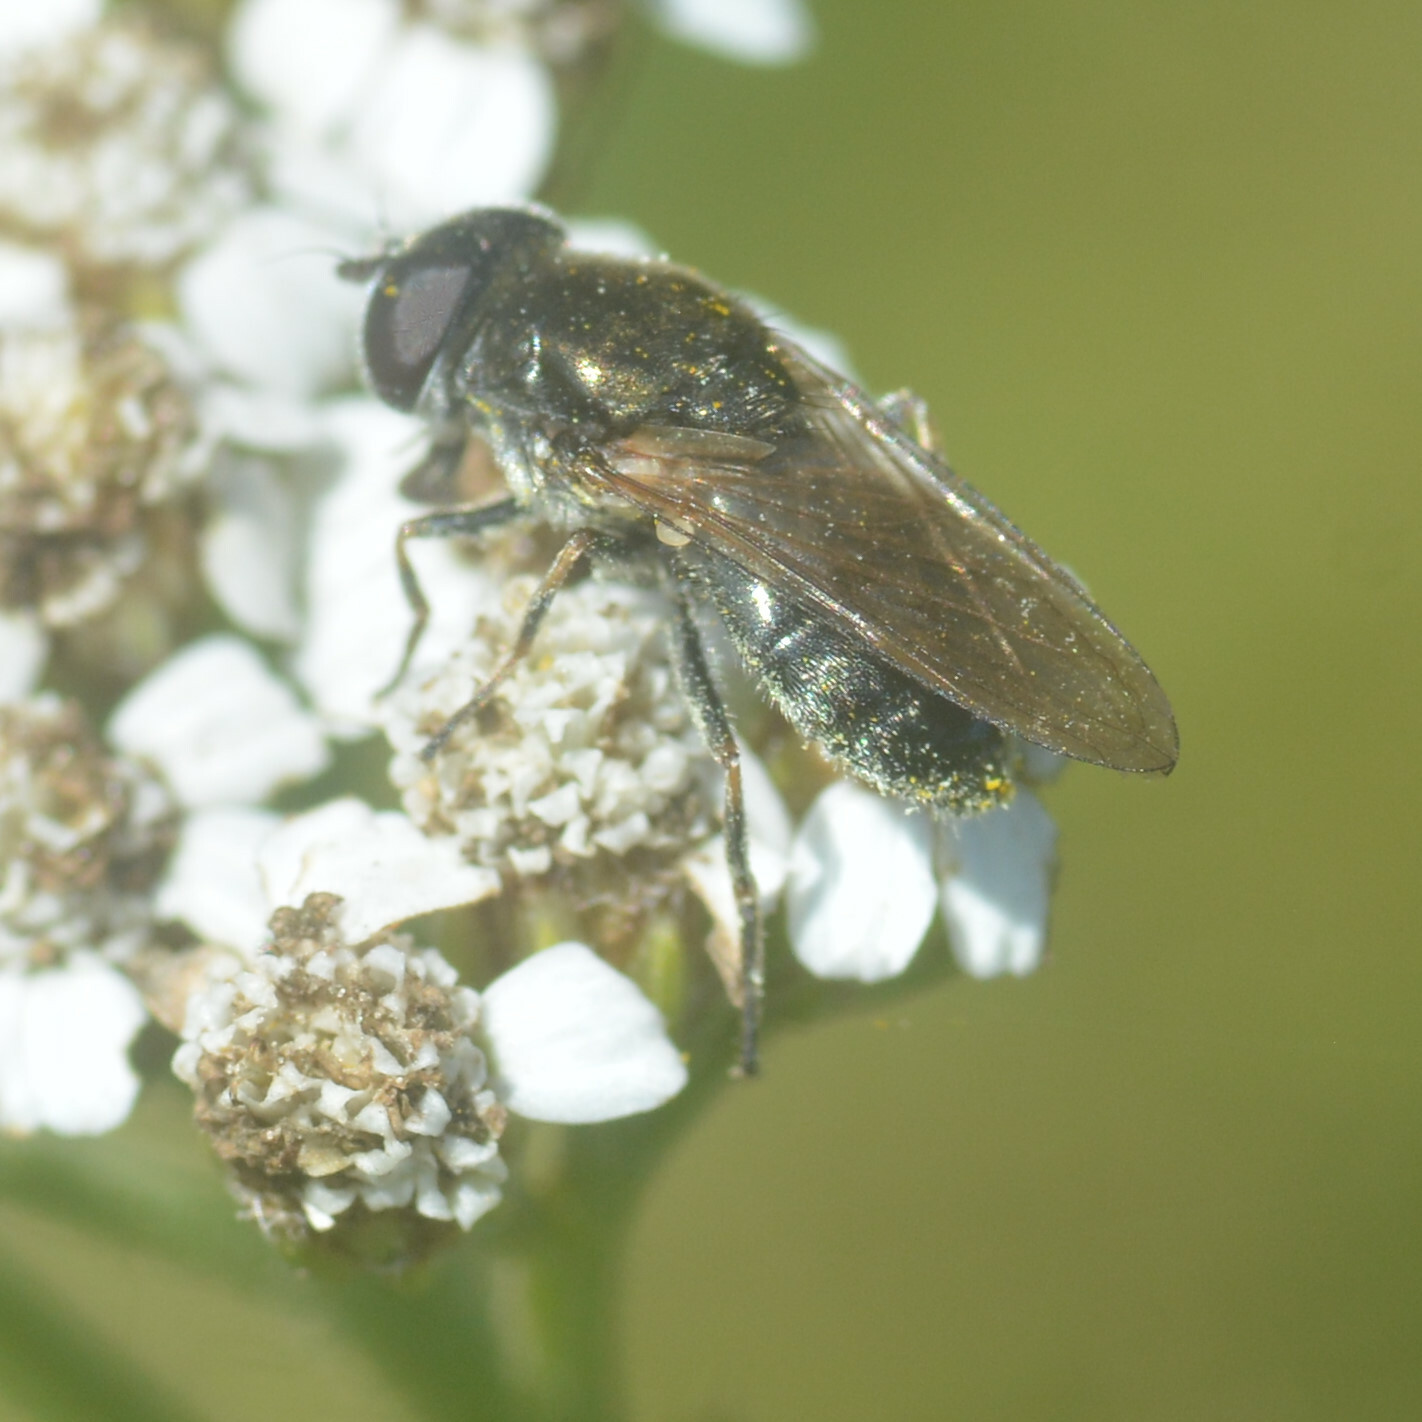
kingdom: Animalia
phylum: Arthropoda
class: Insecta
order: Diptera
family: Syrphidae
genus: Cheilosia
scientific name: Cheilosia
